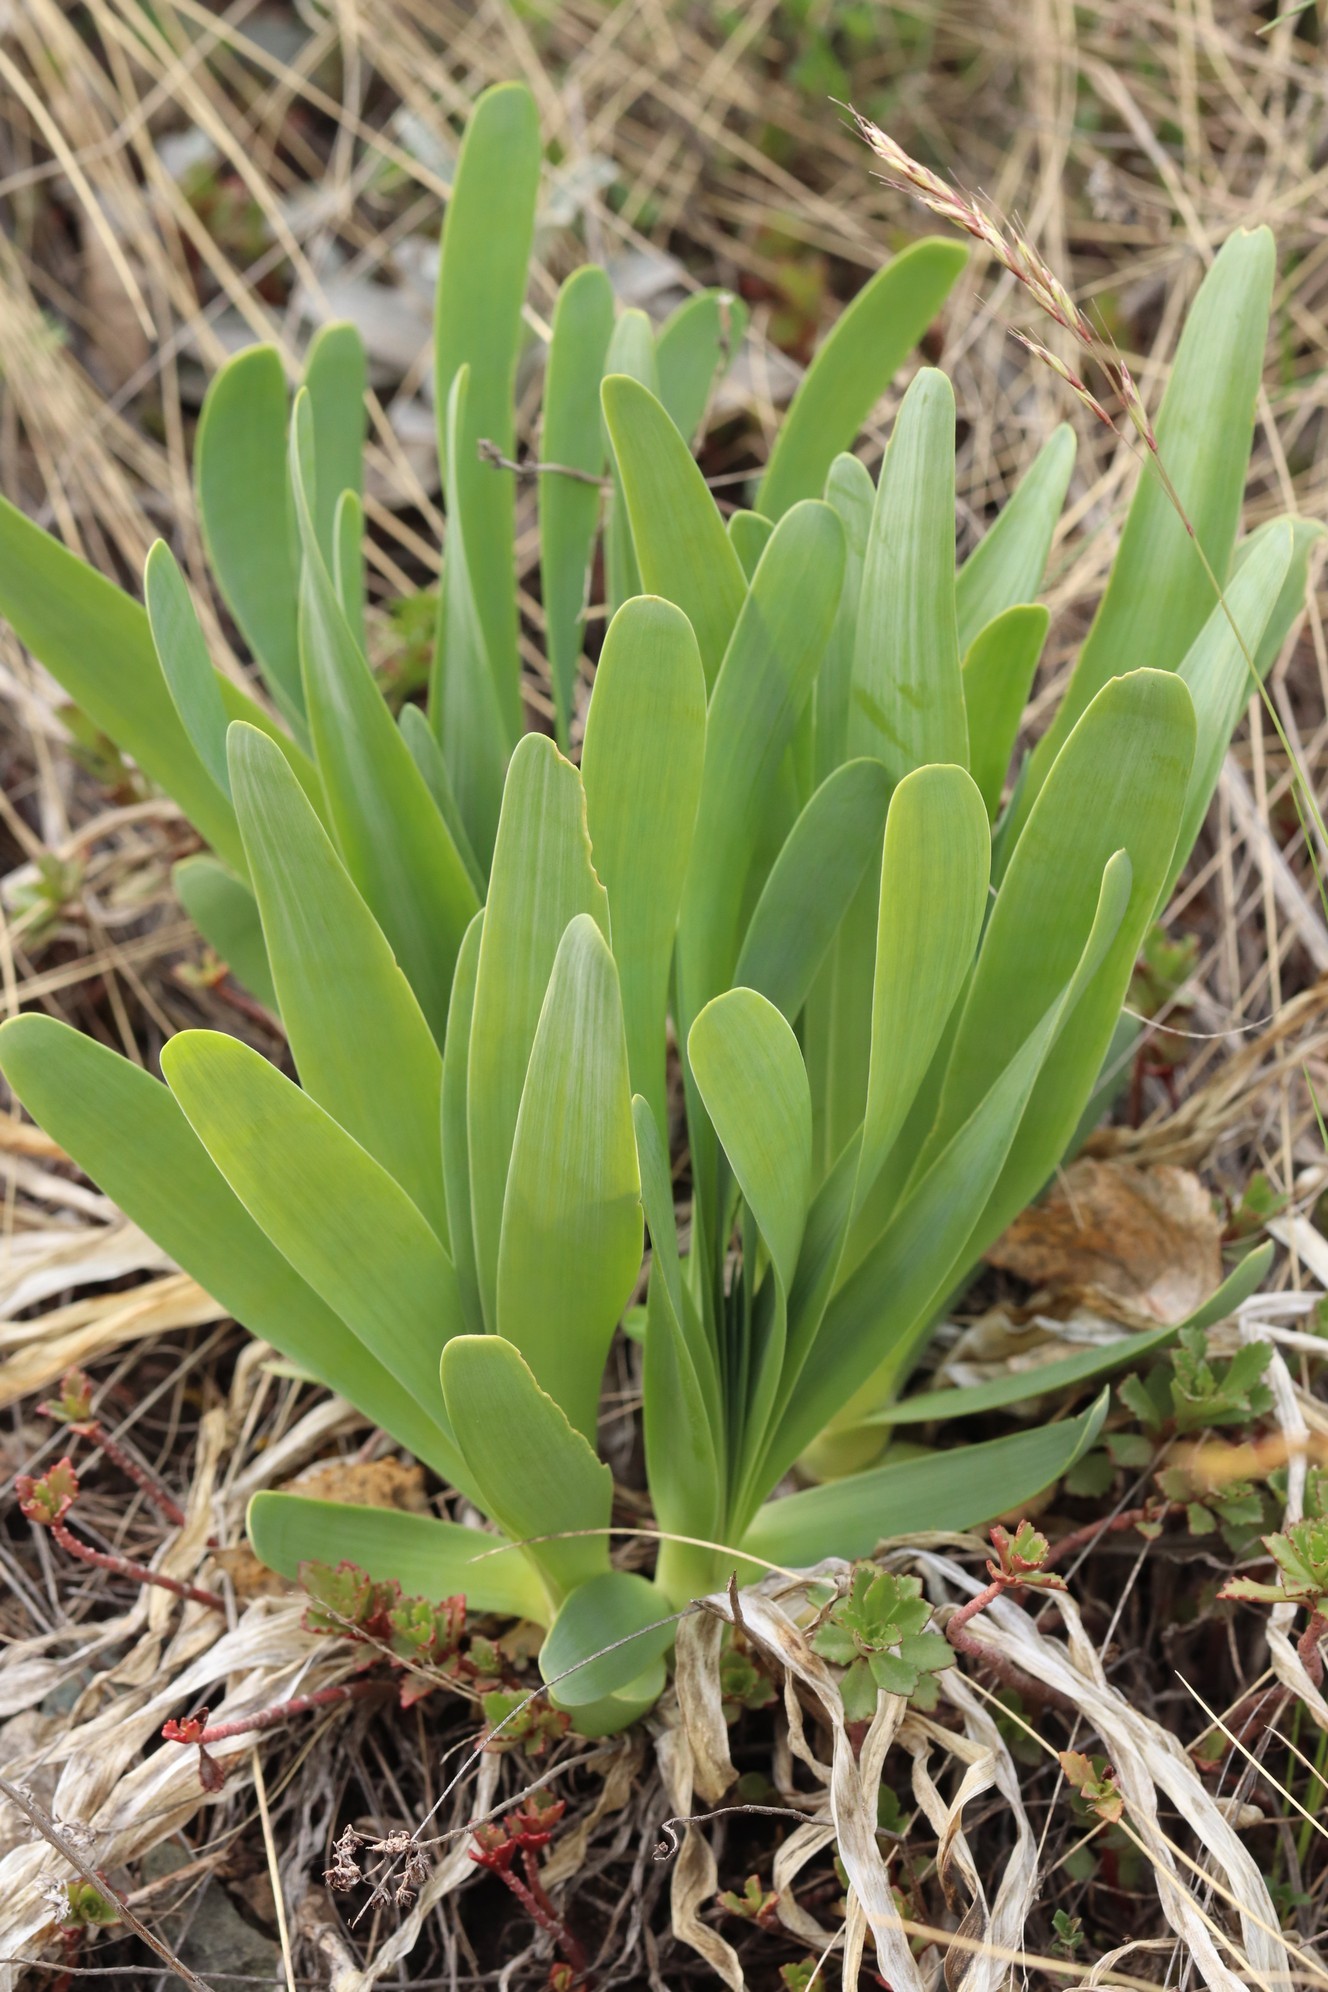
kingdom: Plantae
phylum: Tracheophyta
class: Liliopsida
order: Asparagales
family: Amaryllidaceae
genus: Allium
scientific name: Allium nutans
